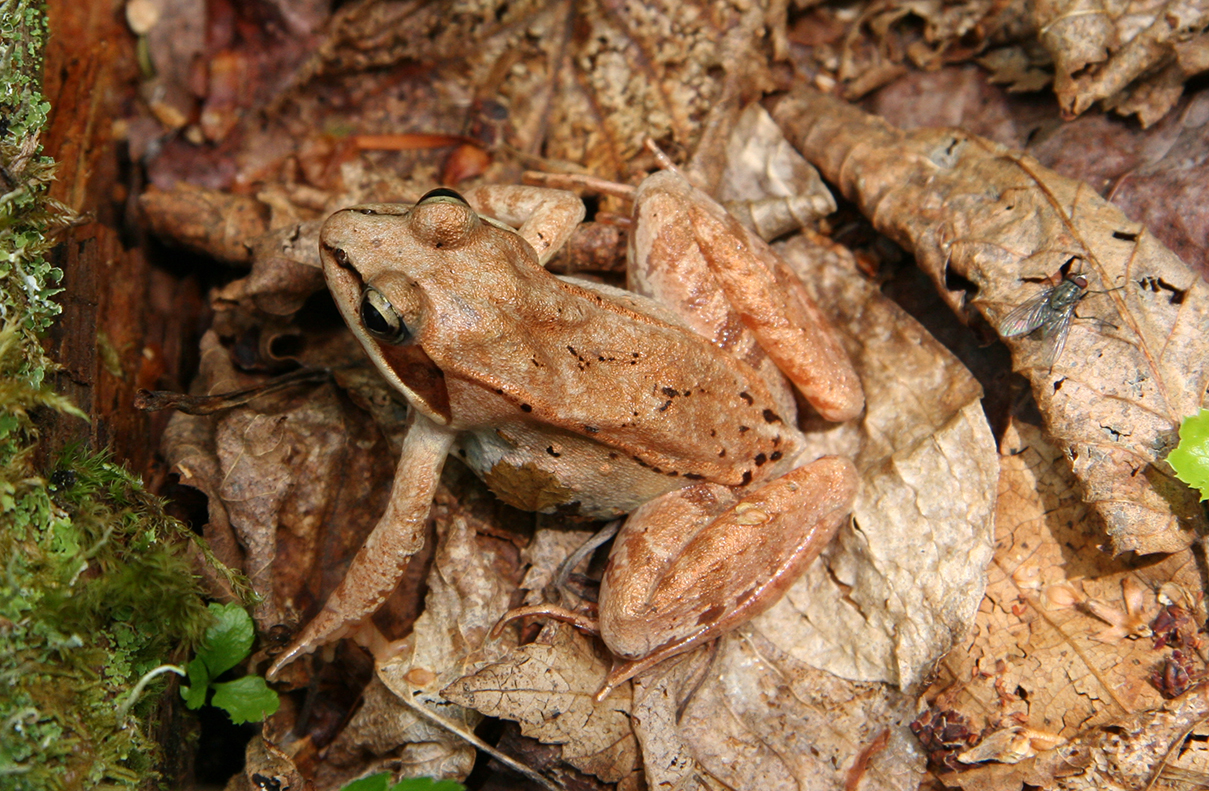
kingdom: Animalia
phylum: Chordata
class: Amphibia
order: Anura
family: Ranidae
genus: Lithobates
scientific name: Lithobates sylvaticus
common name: Wood frog
